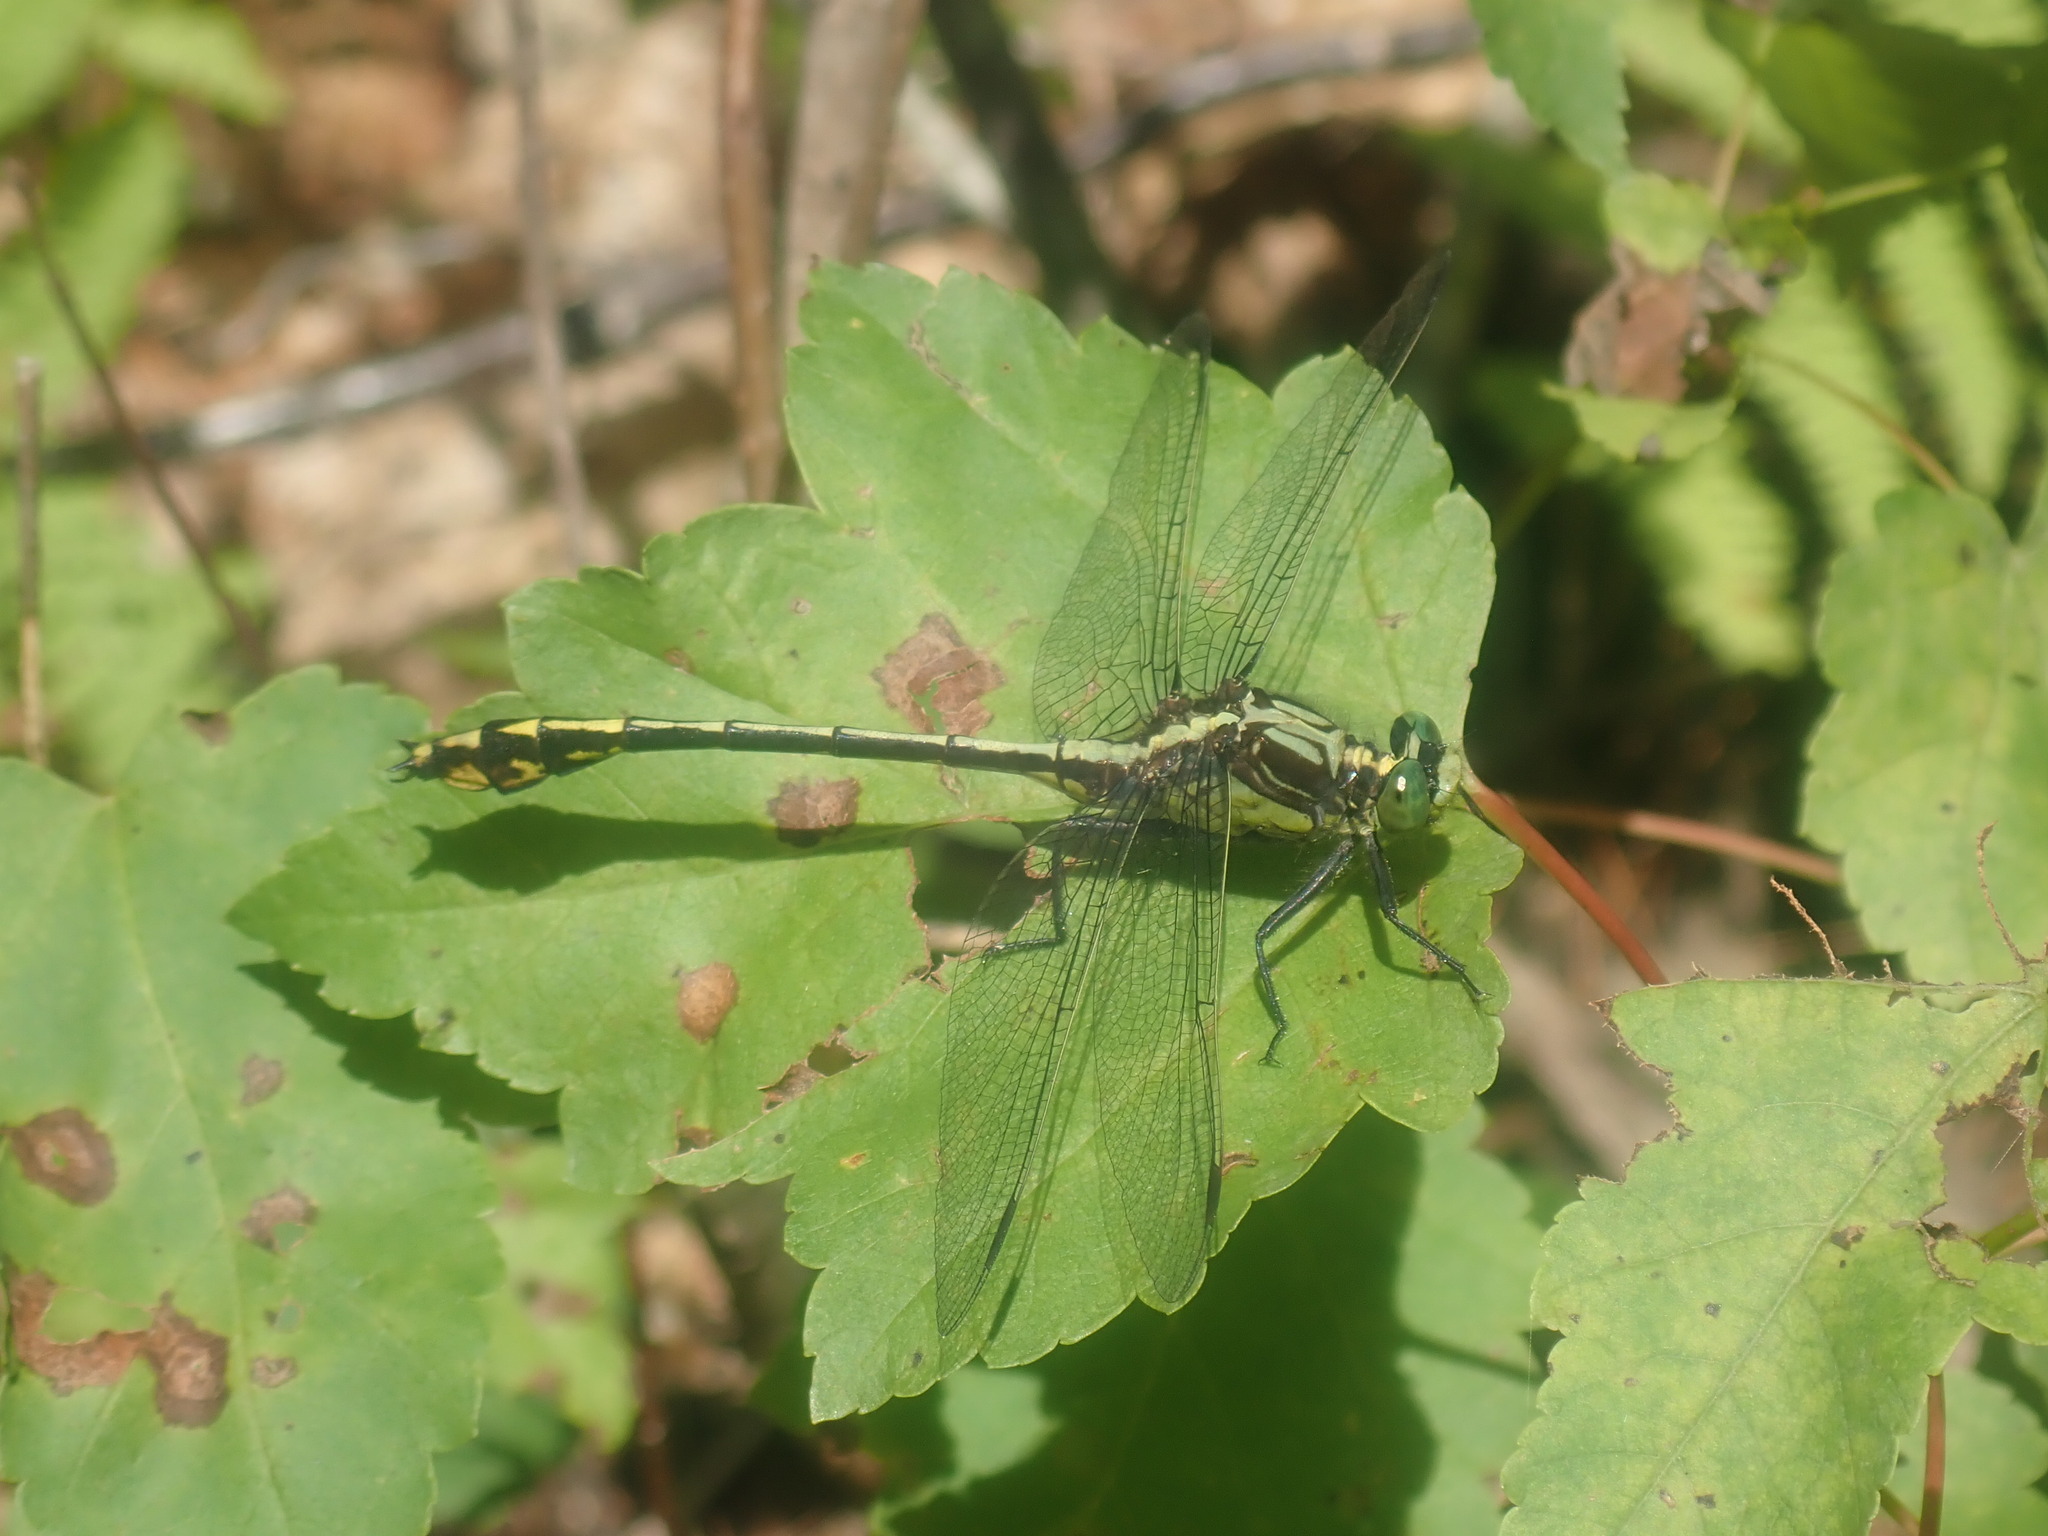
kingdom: Animalia
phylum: Arthropoda
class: Insecta
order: Odonata
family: Gomphidae
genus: Dromogomphus
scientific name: Dromogomphus spinosus
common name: Black-shouldered spinyleg
